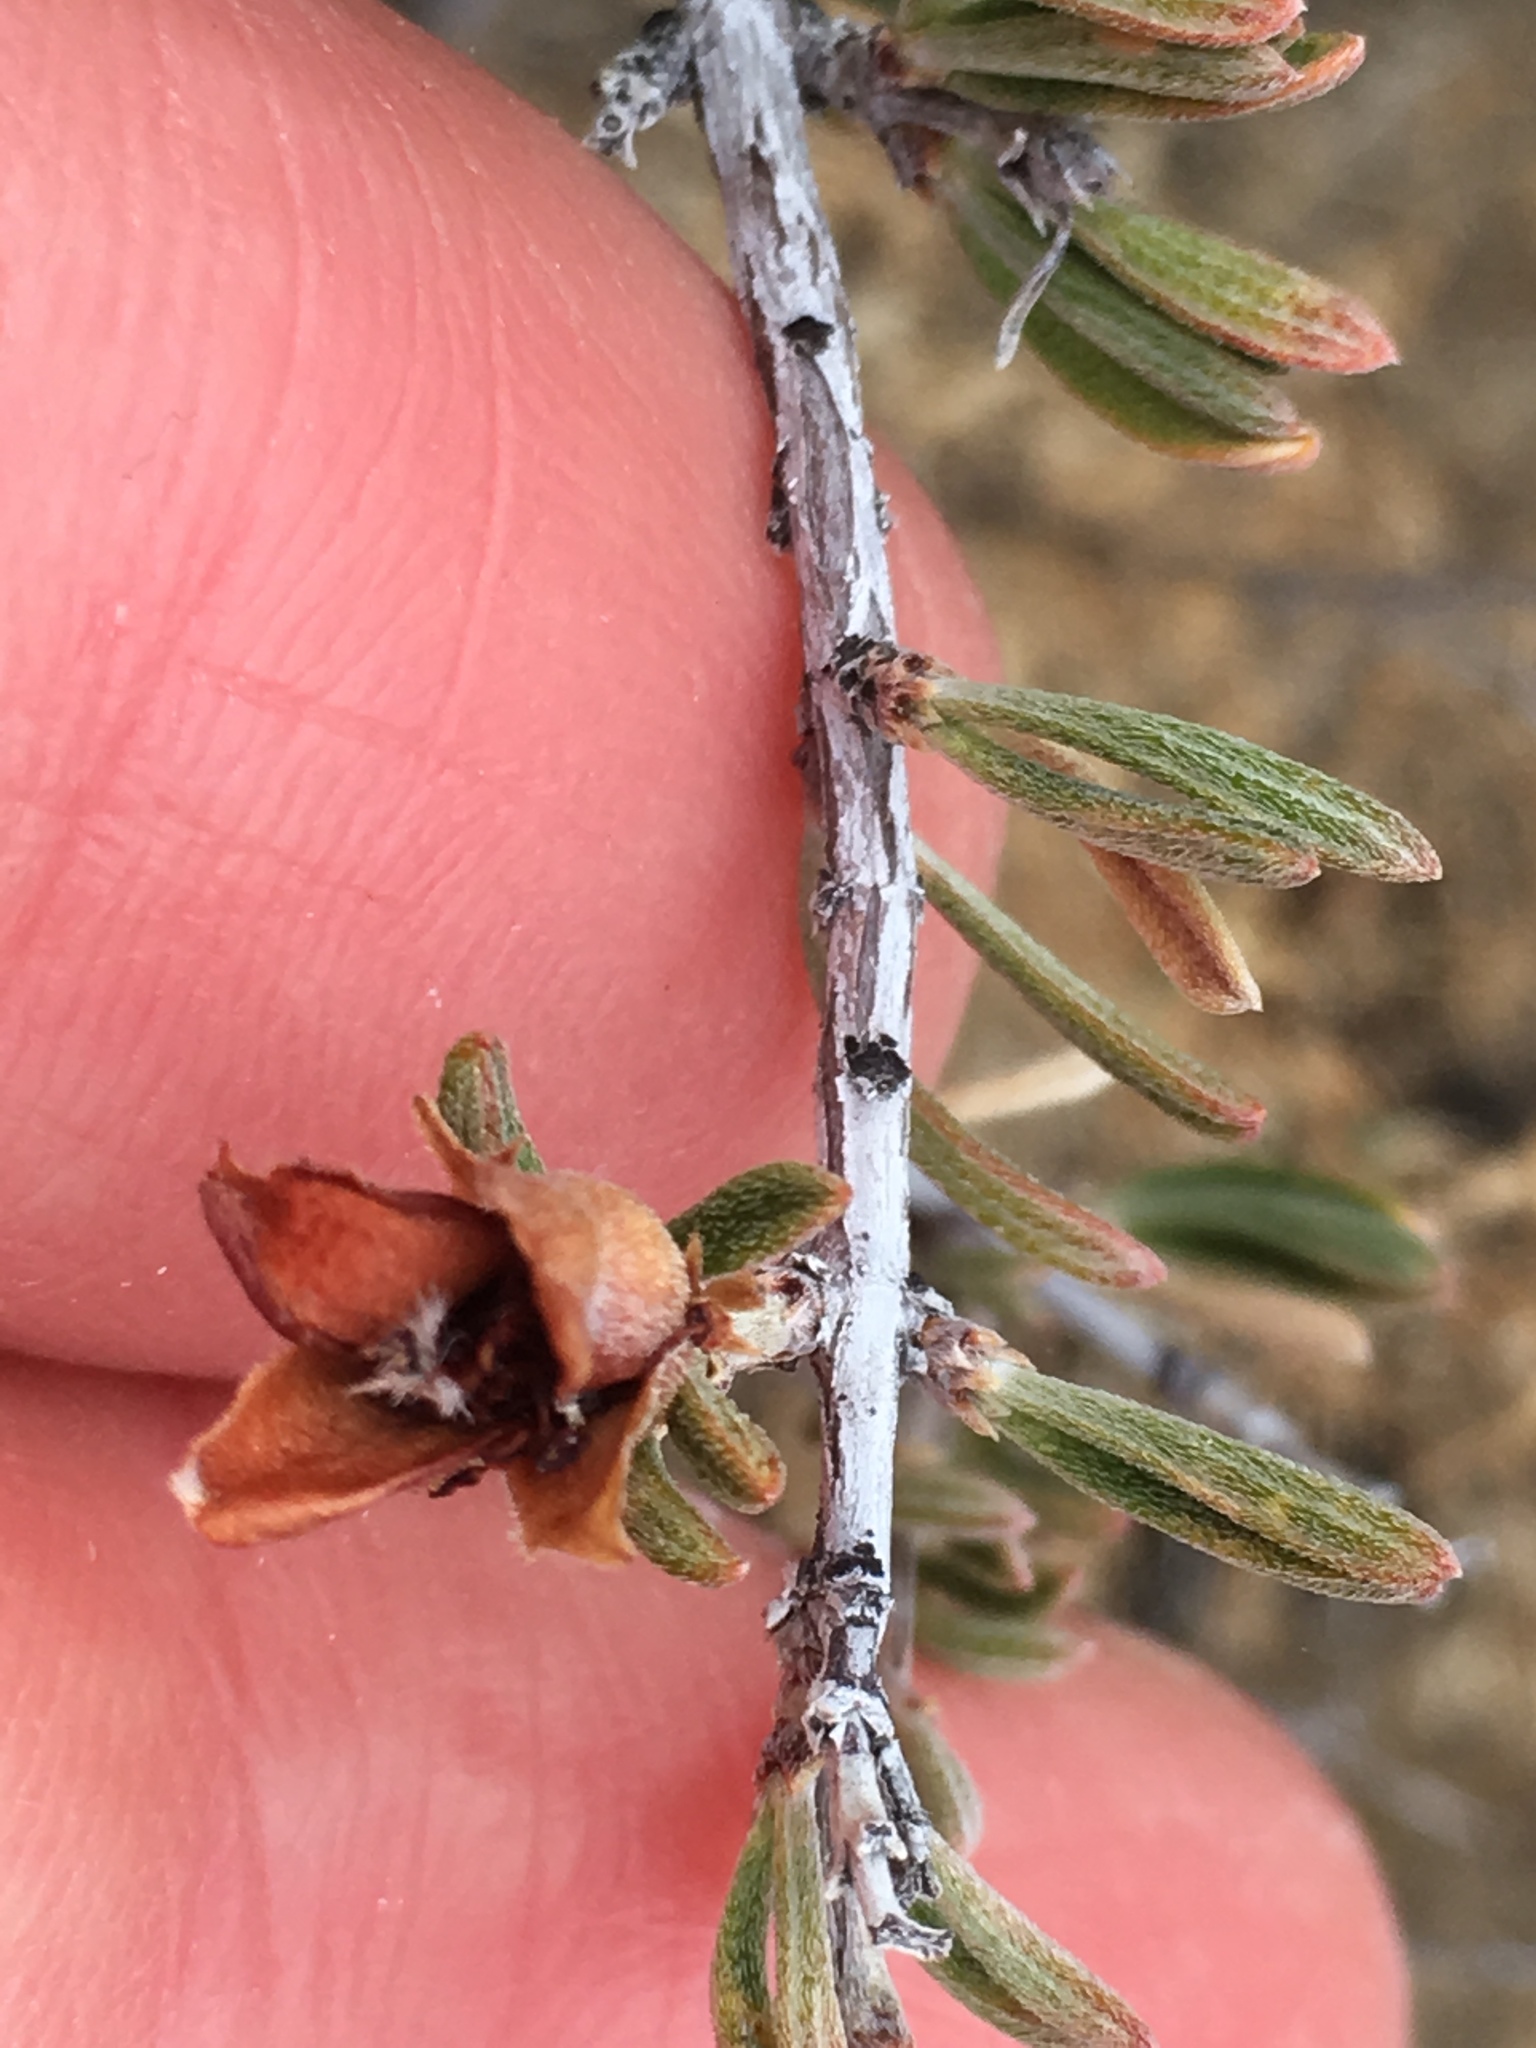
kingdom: Plantae
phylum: Tracheophyta
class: Magnoliopsida
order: Rosales
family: Rosaceae
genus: Coleogyne
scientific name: Coleogyne ramosissima
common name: Blackbrush
